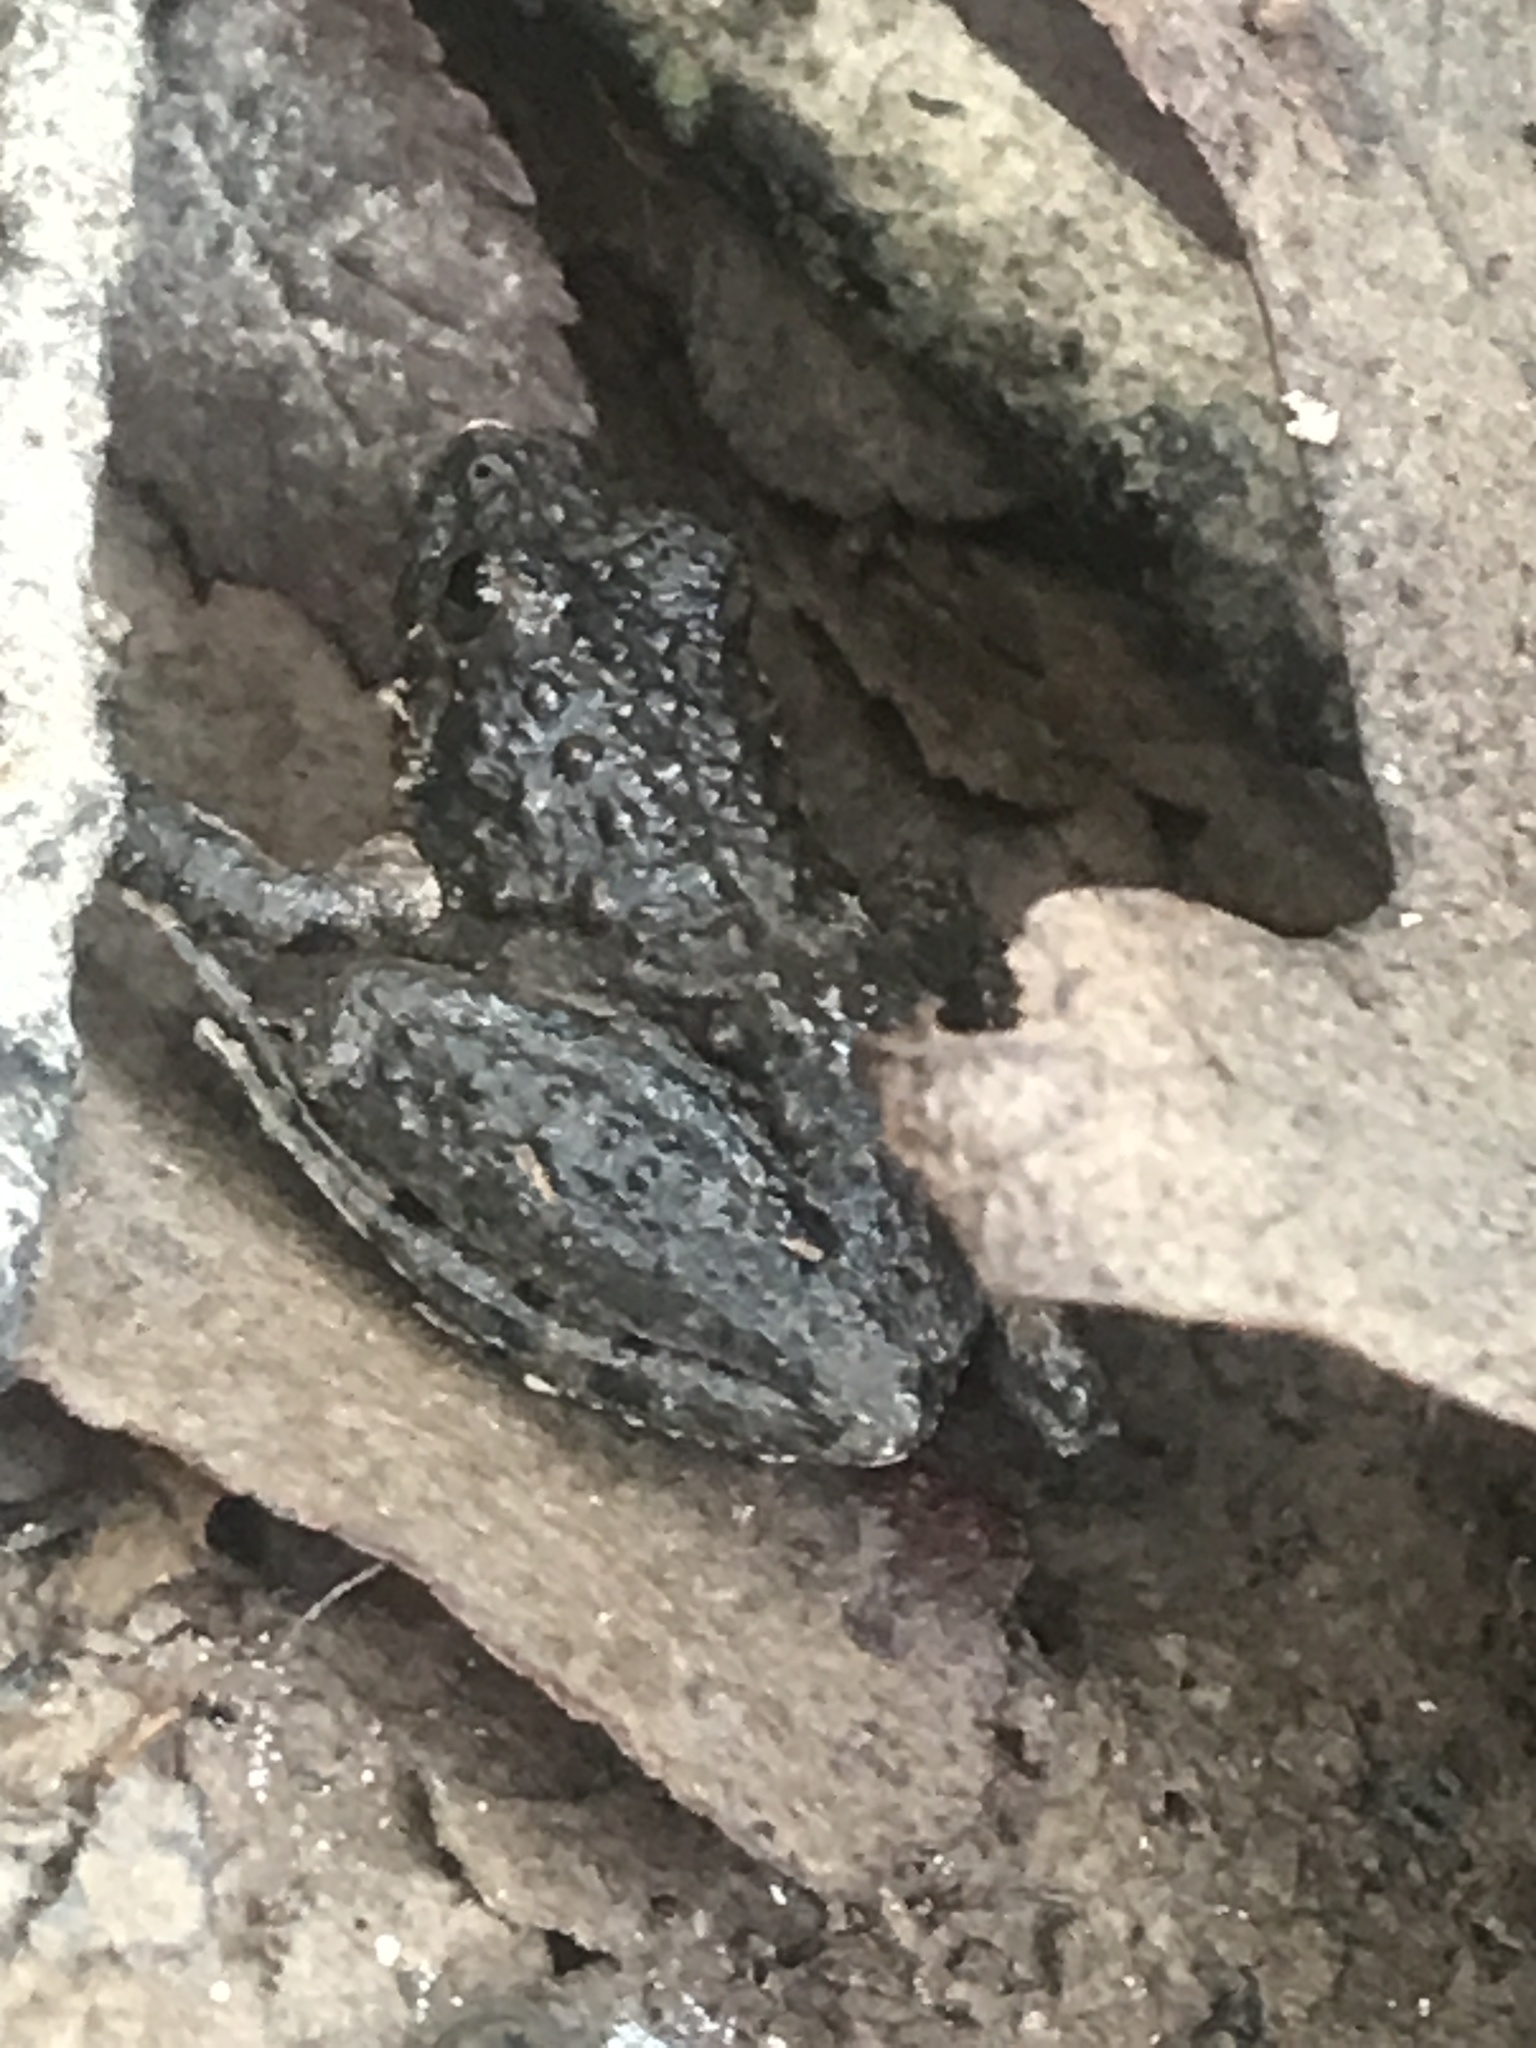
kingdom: Animalia
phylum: Chordata
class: Amphibia
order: Anura
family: Hylidae
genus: Acris
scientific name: Acris blanchardi
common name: Blanchard's cricket frog
